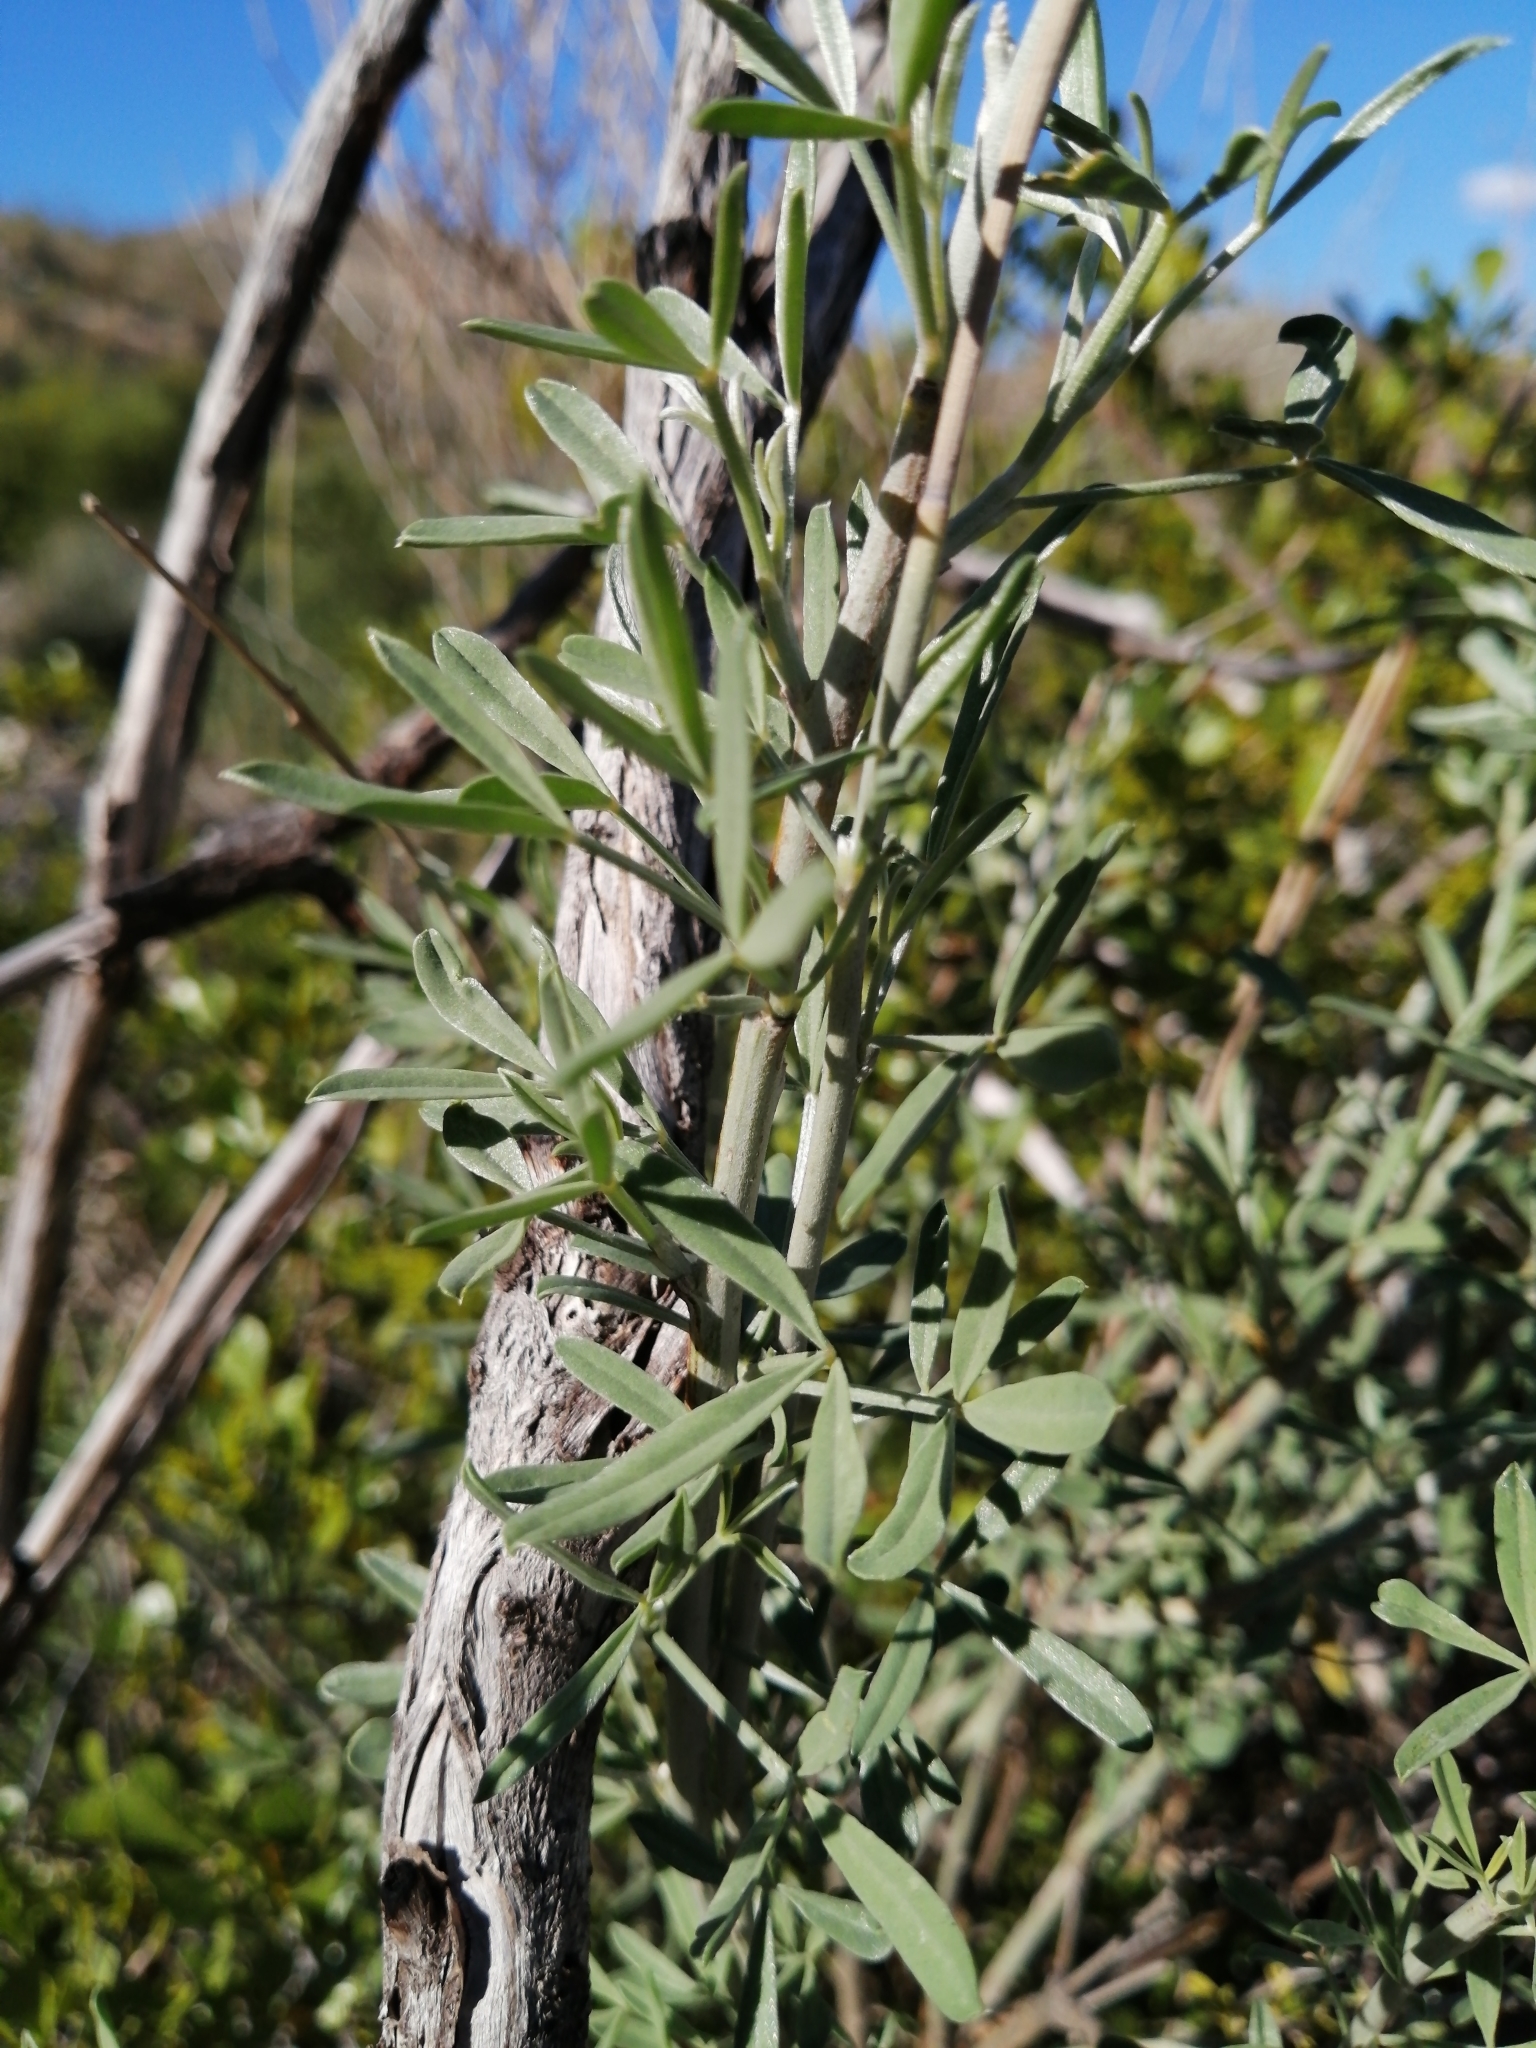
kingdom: Plantae
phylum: Tracheophyta
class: Magnoliopsida
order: Fabales
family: Fabaceae
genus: Calobota
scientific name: Calobota cytisoides
